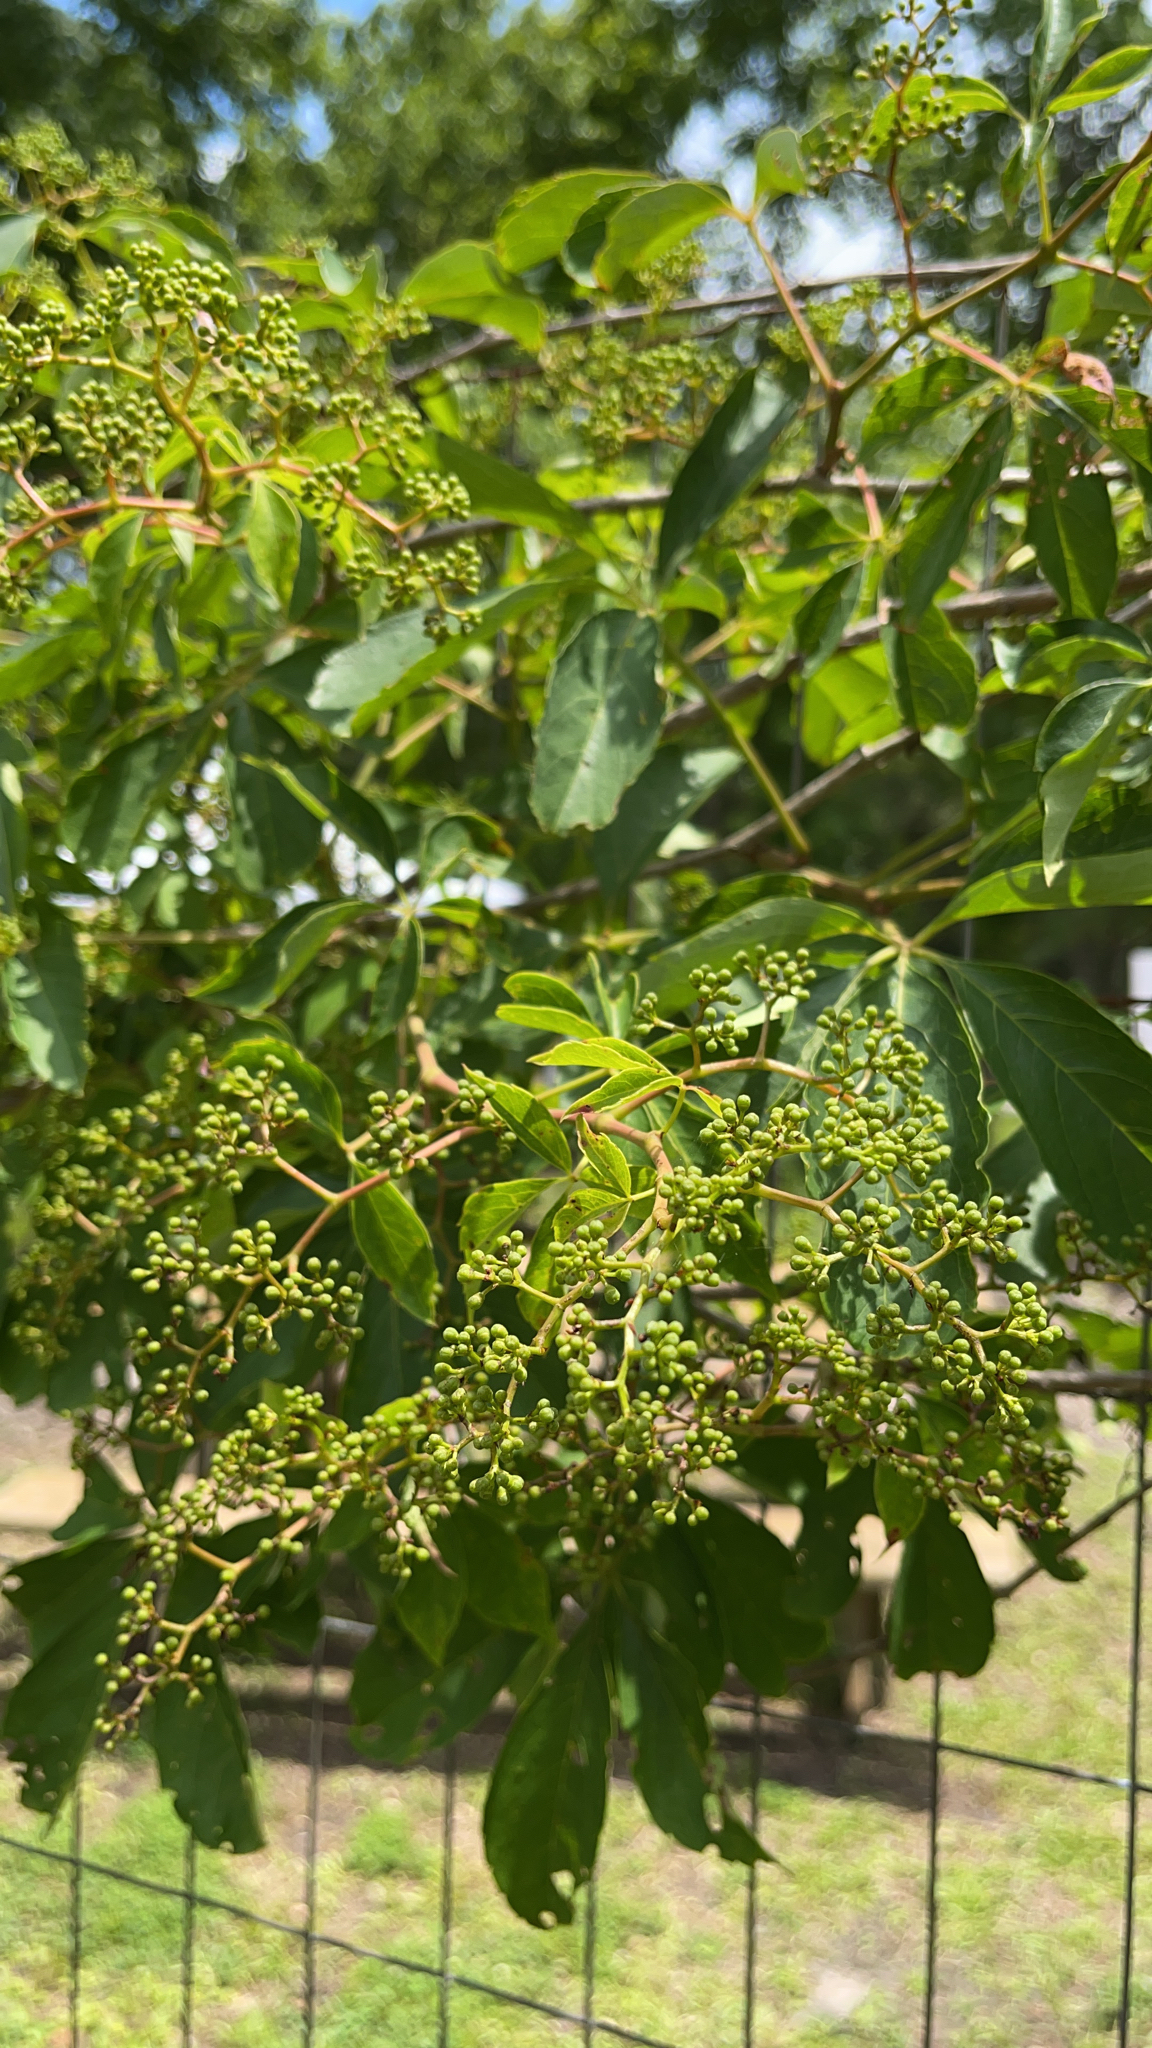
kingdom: Plantae
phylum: Tracheophyta
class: Magnoliopsida
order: Vitales
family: Vitaceae
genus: Parthenocissus
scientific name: Parthenocissus quinquefolia
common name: Virginia-creeper
